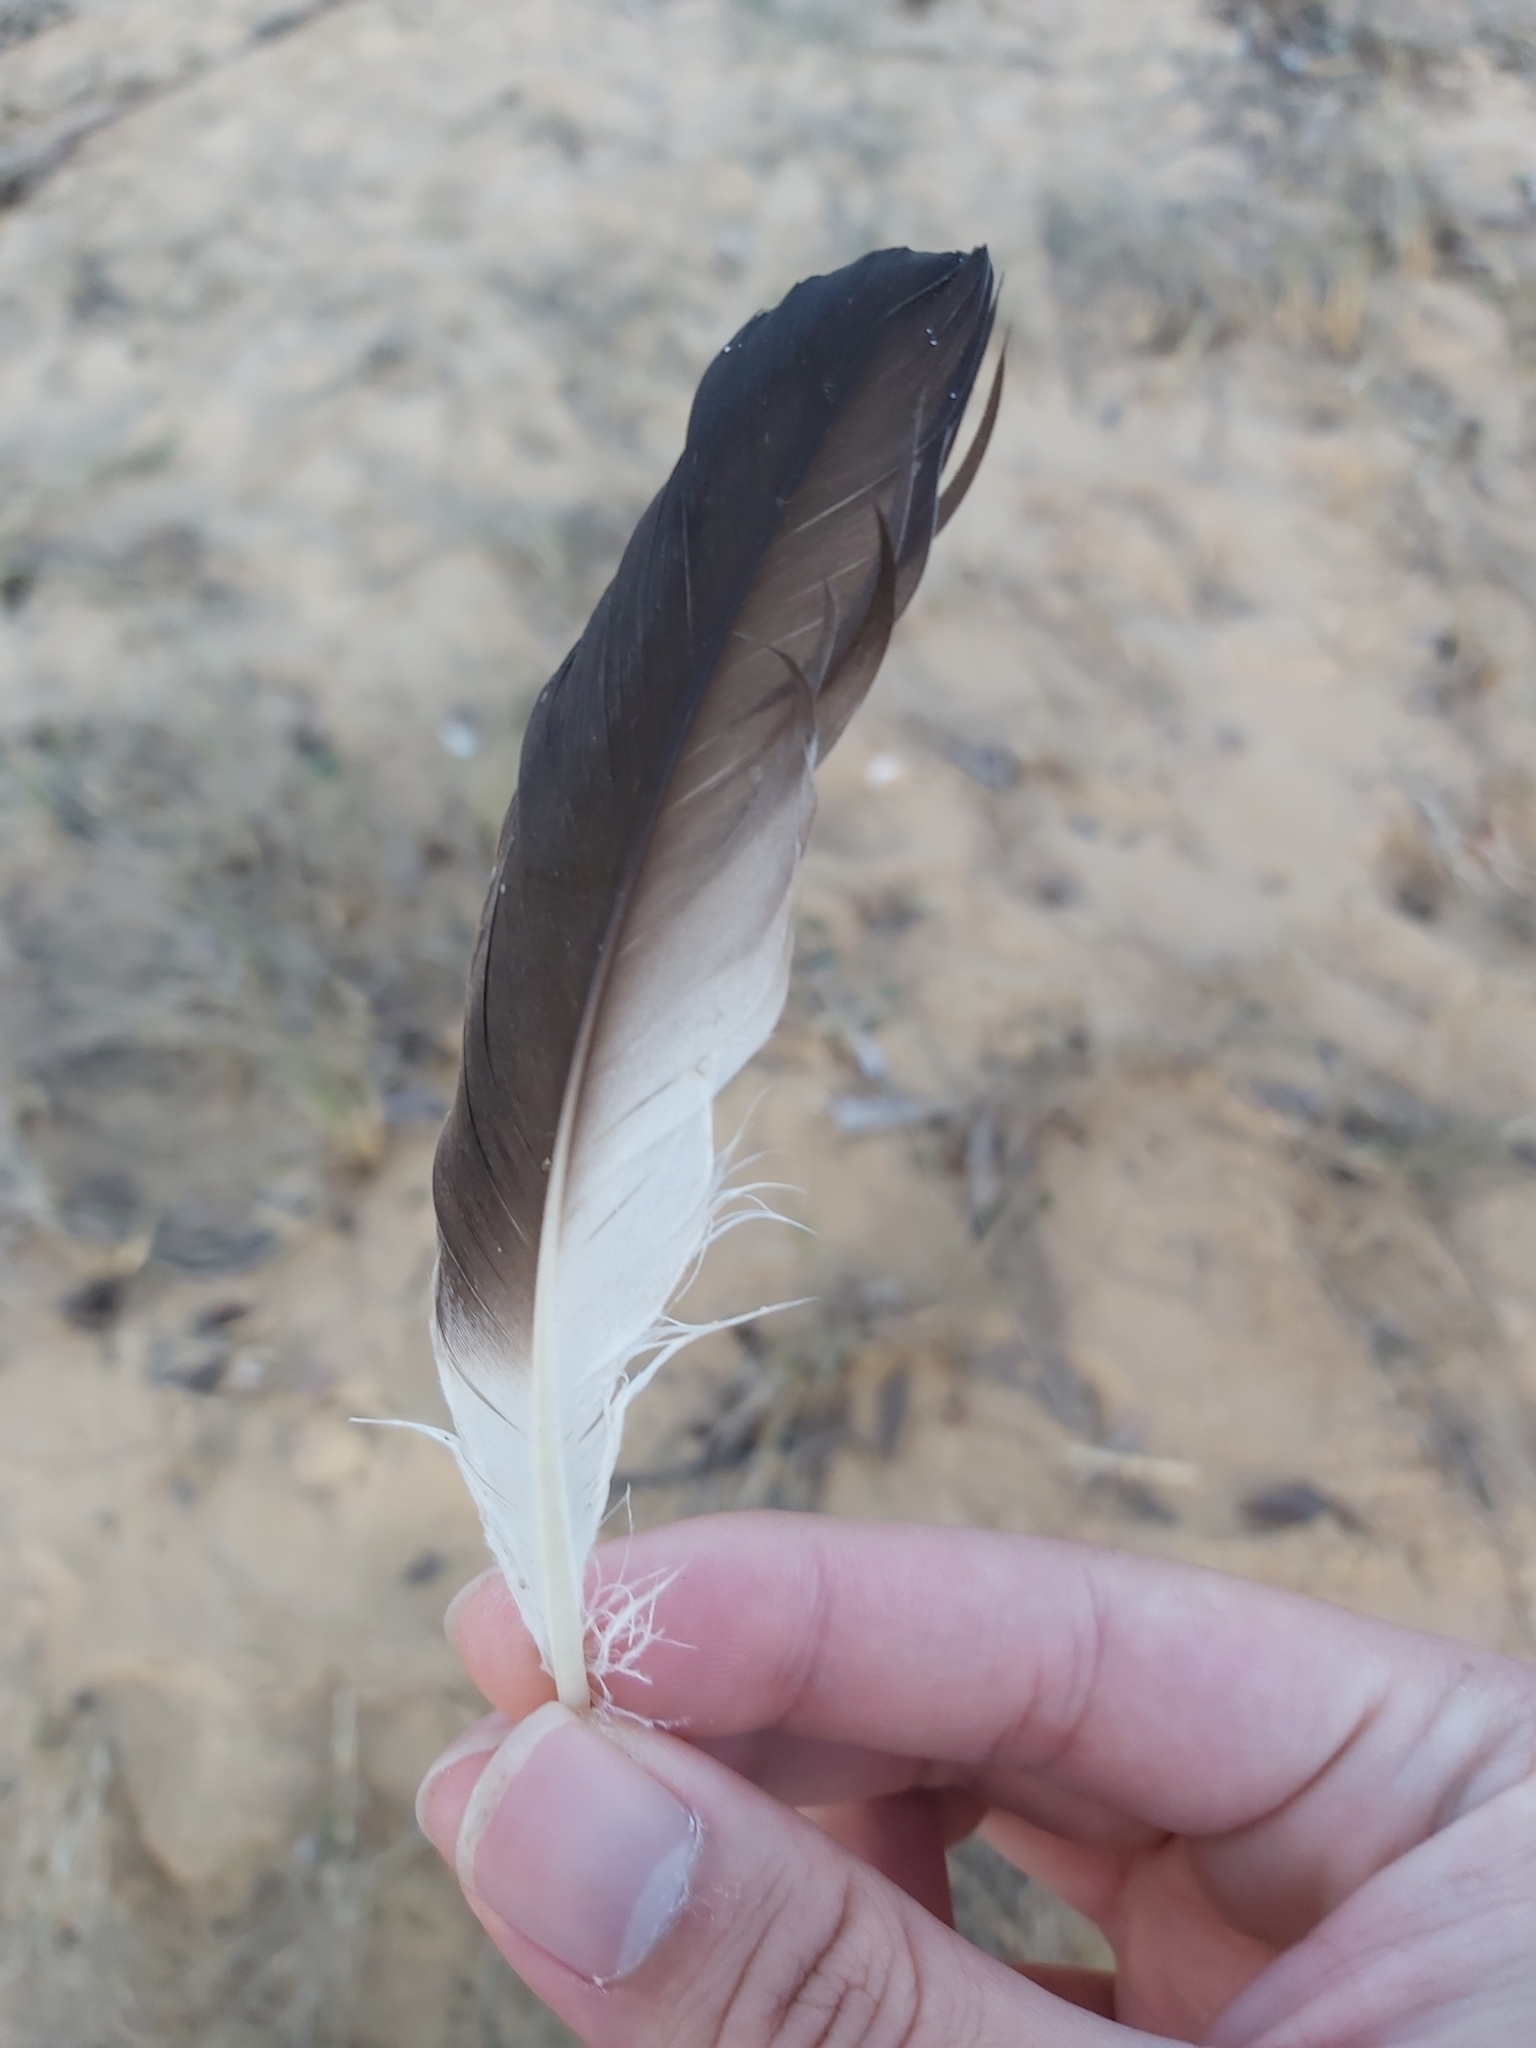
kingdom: Animalia
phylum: Chordata
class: Aves
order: Suliformes
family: Sulidae
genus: Morus
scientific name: Morus serrator
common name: Australasian gannet
